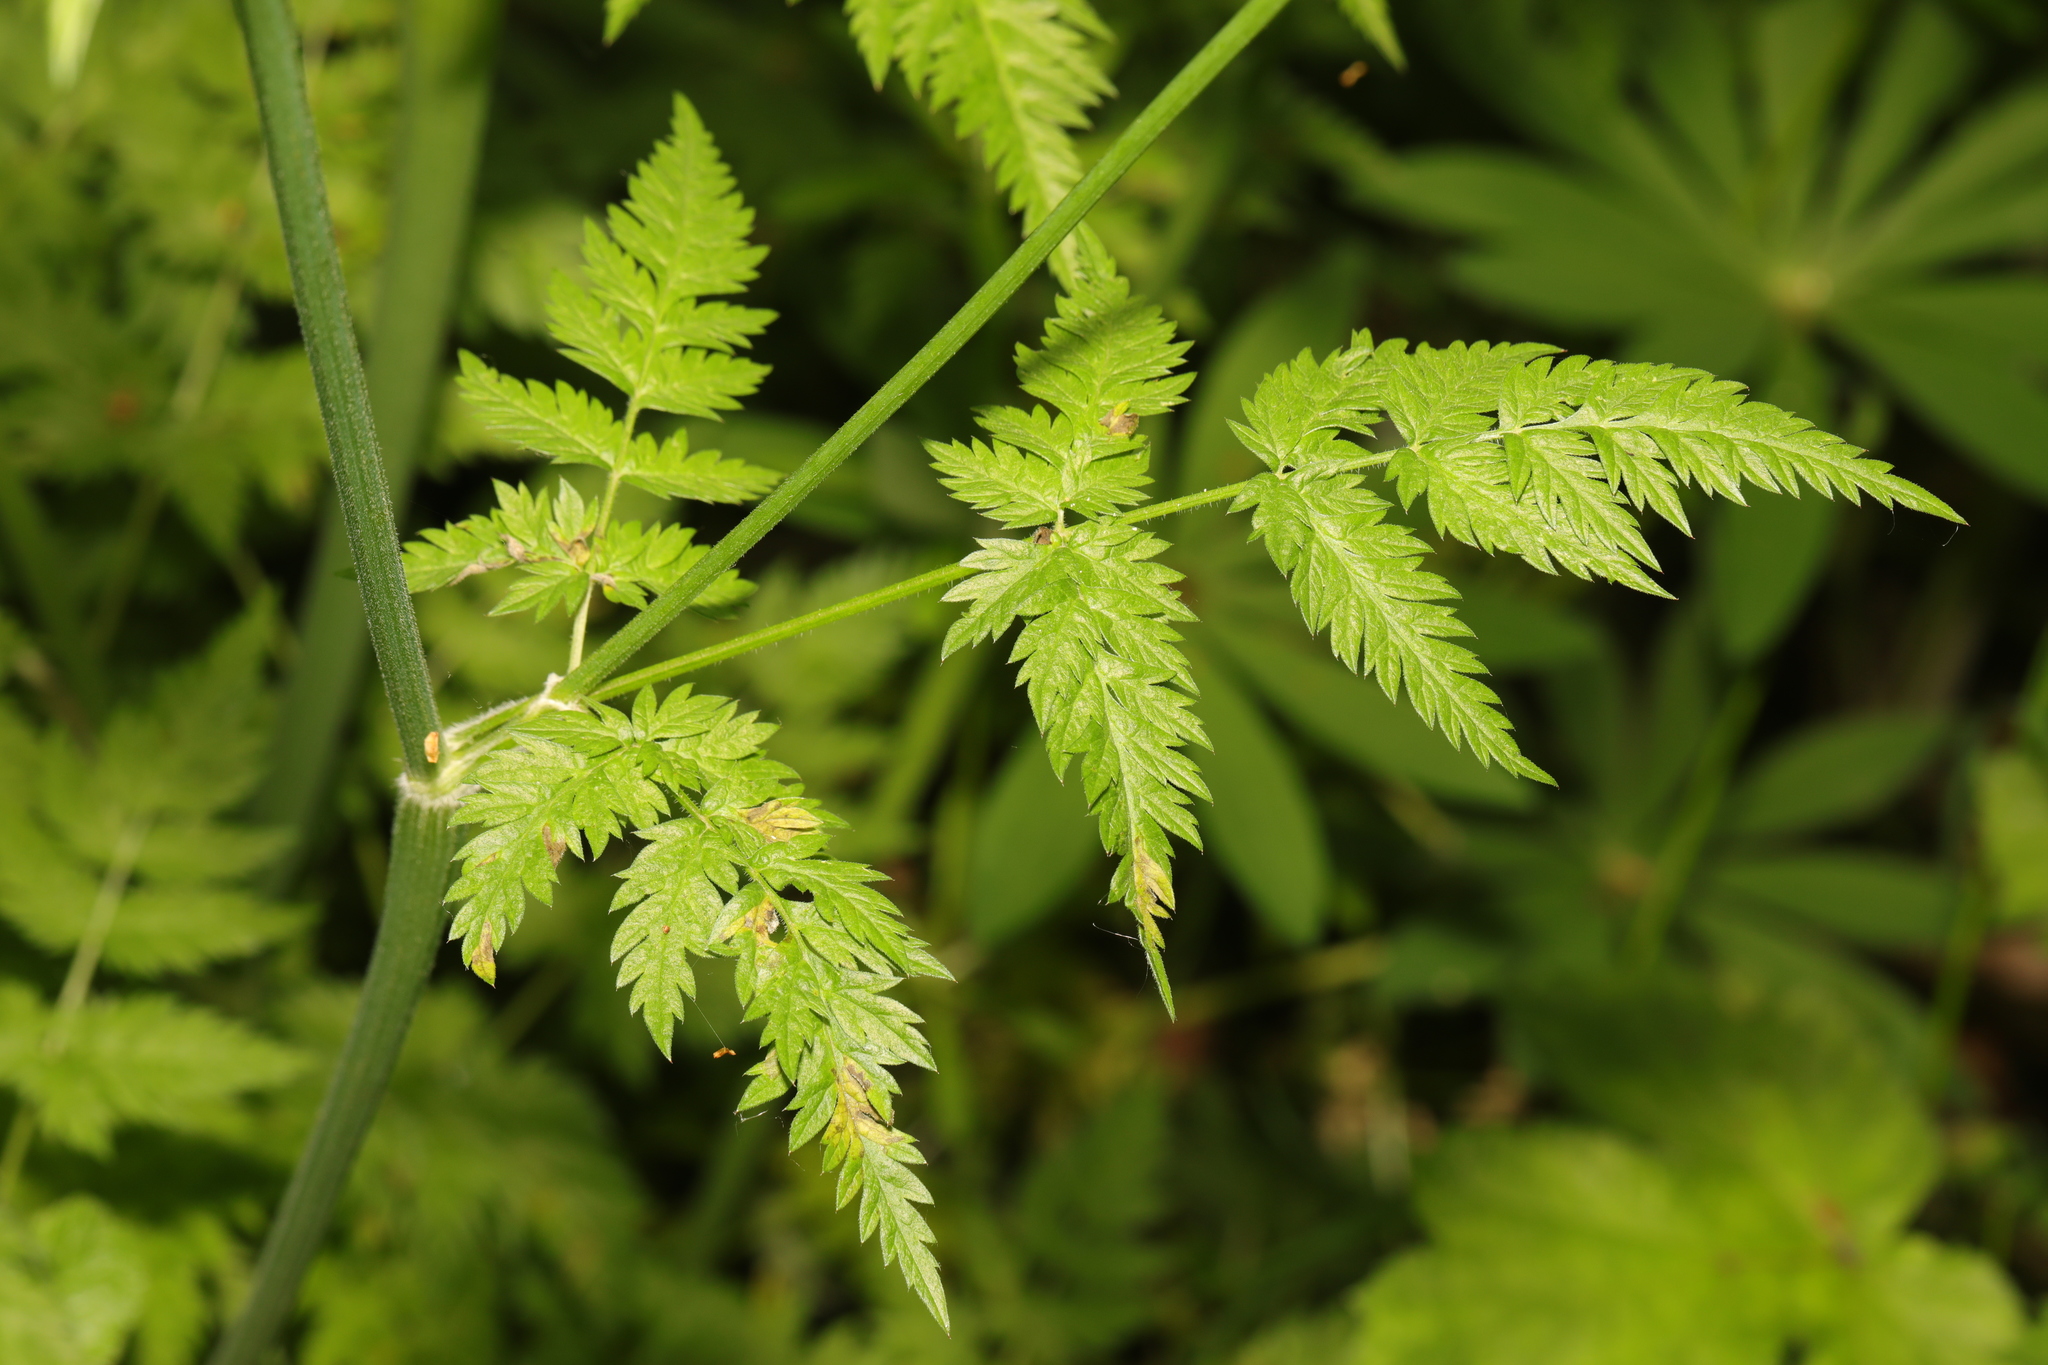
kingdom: Plantae
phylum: Tracheophyta
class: Magnoliopsida
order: Apiales
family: Apiaceae
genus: Anthriscus
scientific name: Anthriscus sylvestris
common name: Cow parsley
